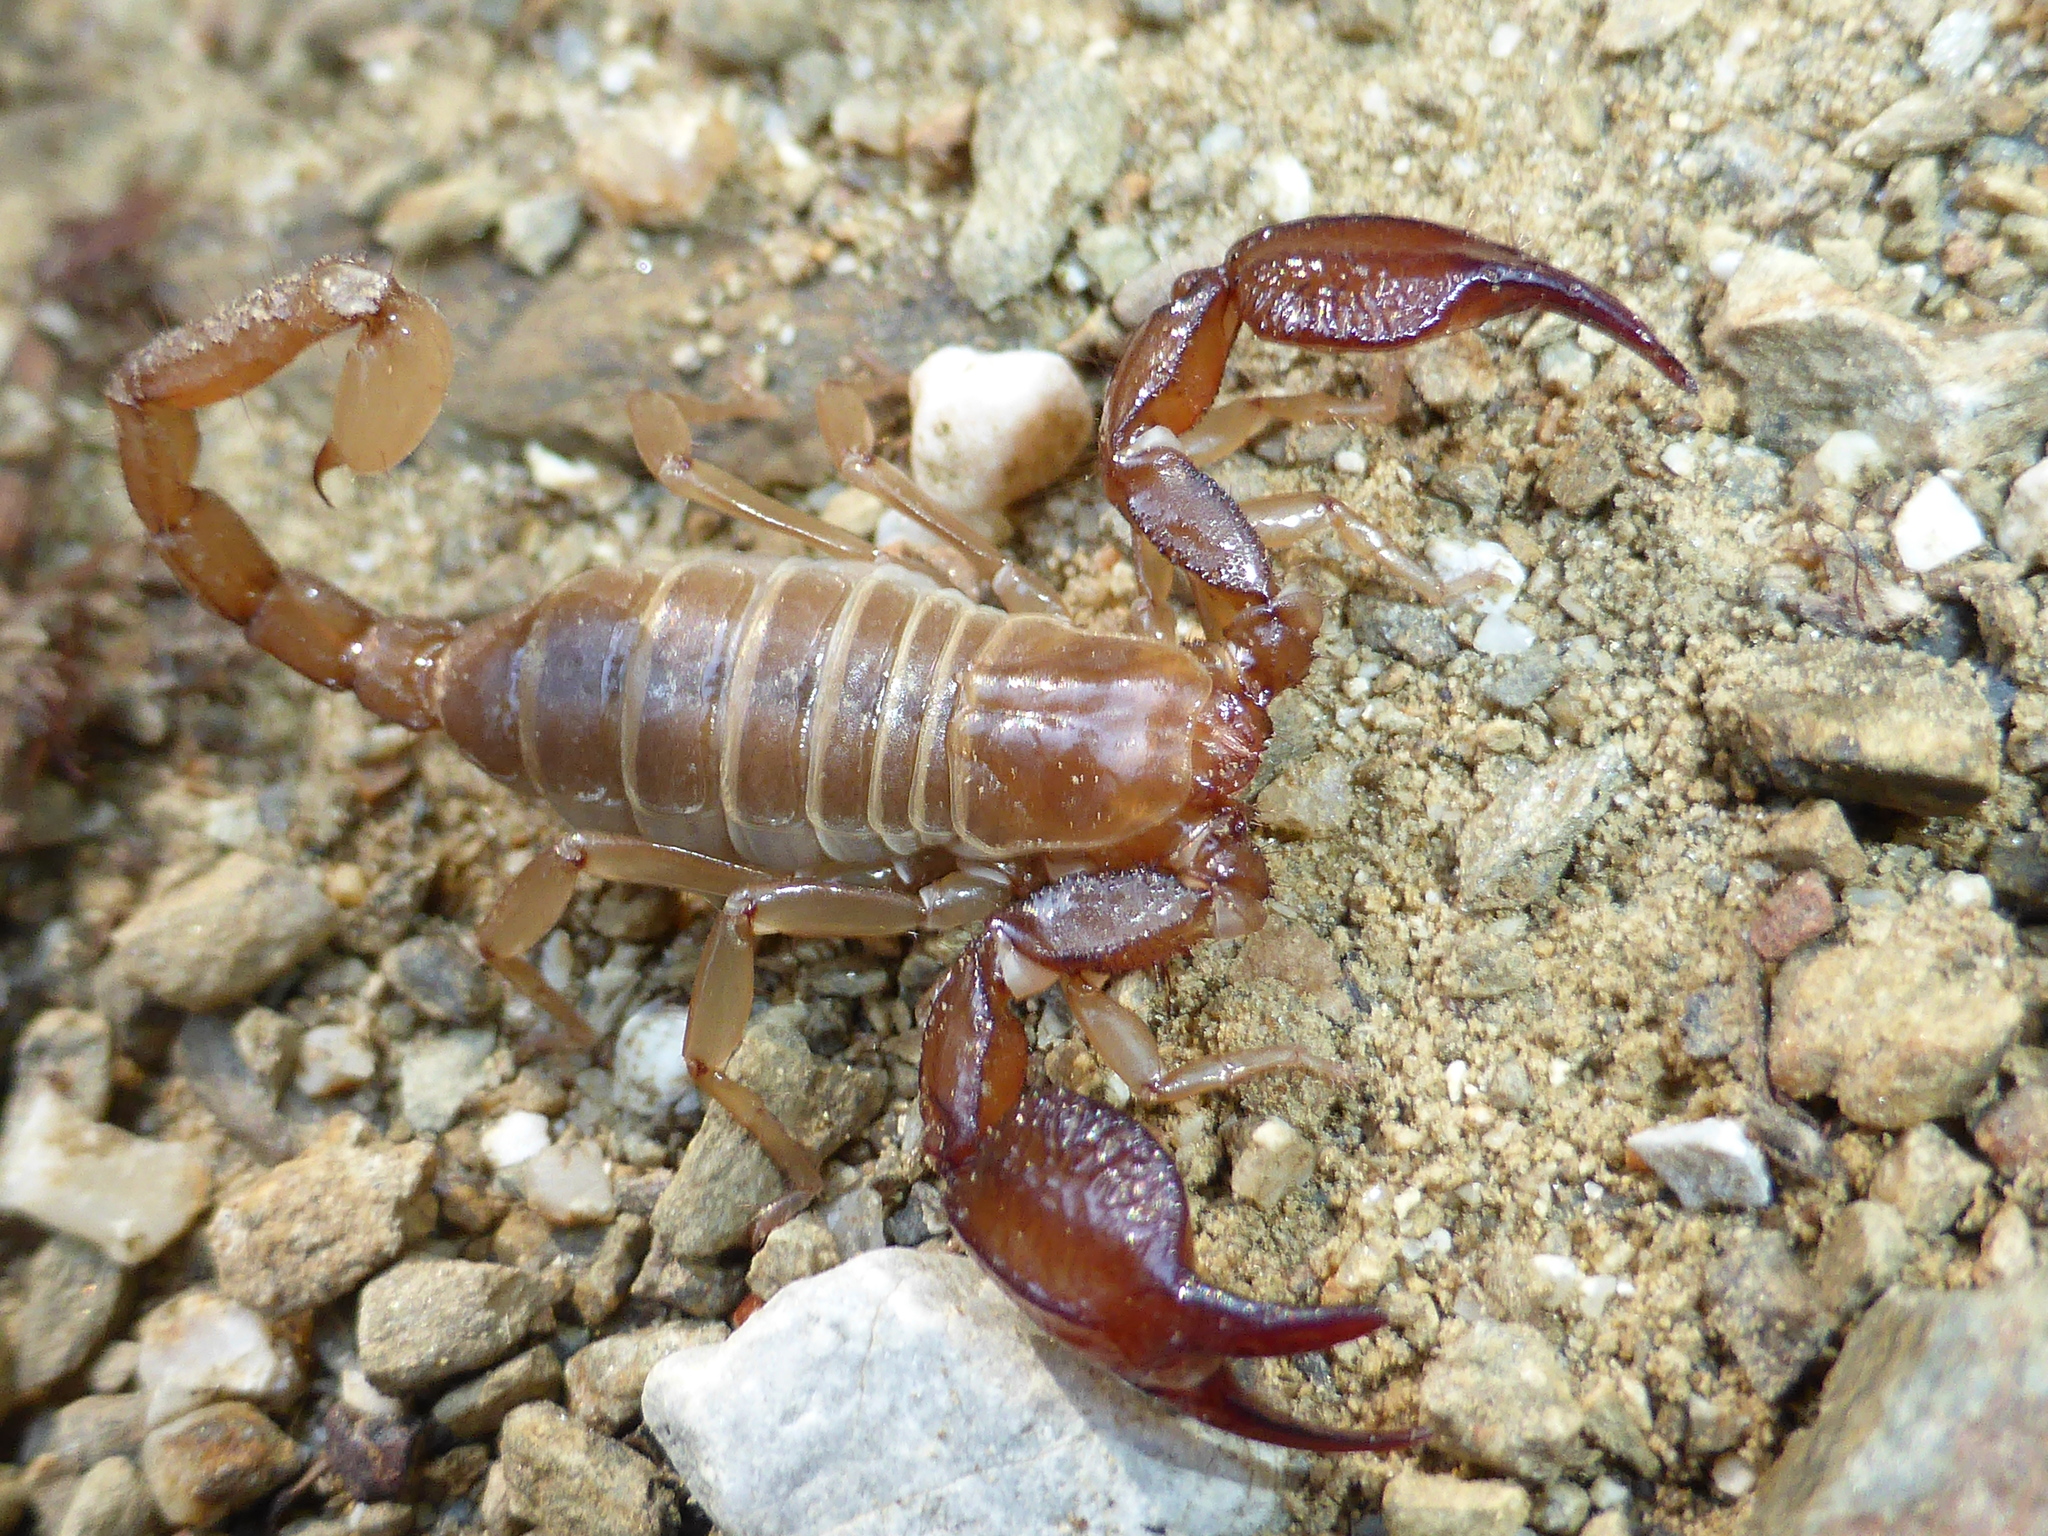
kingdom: Animalia
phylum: Arthropoda
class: Arachnida
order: Scorpiones
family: Belisariidae
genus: Belisarius
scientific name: Belisarius xambeui
